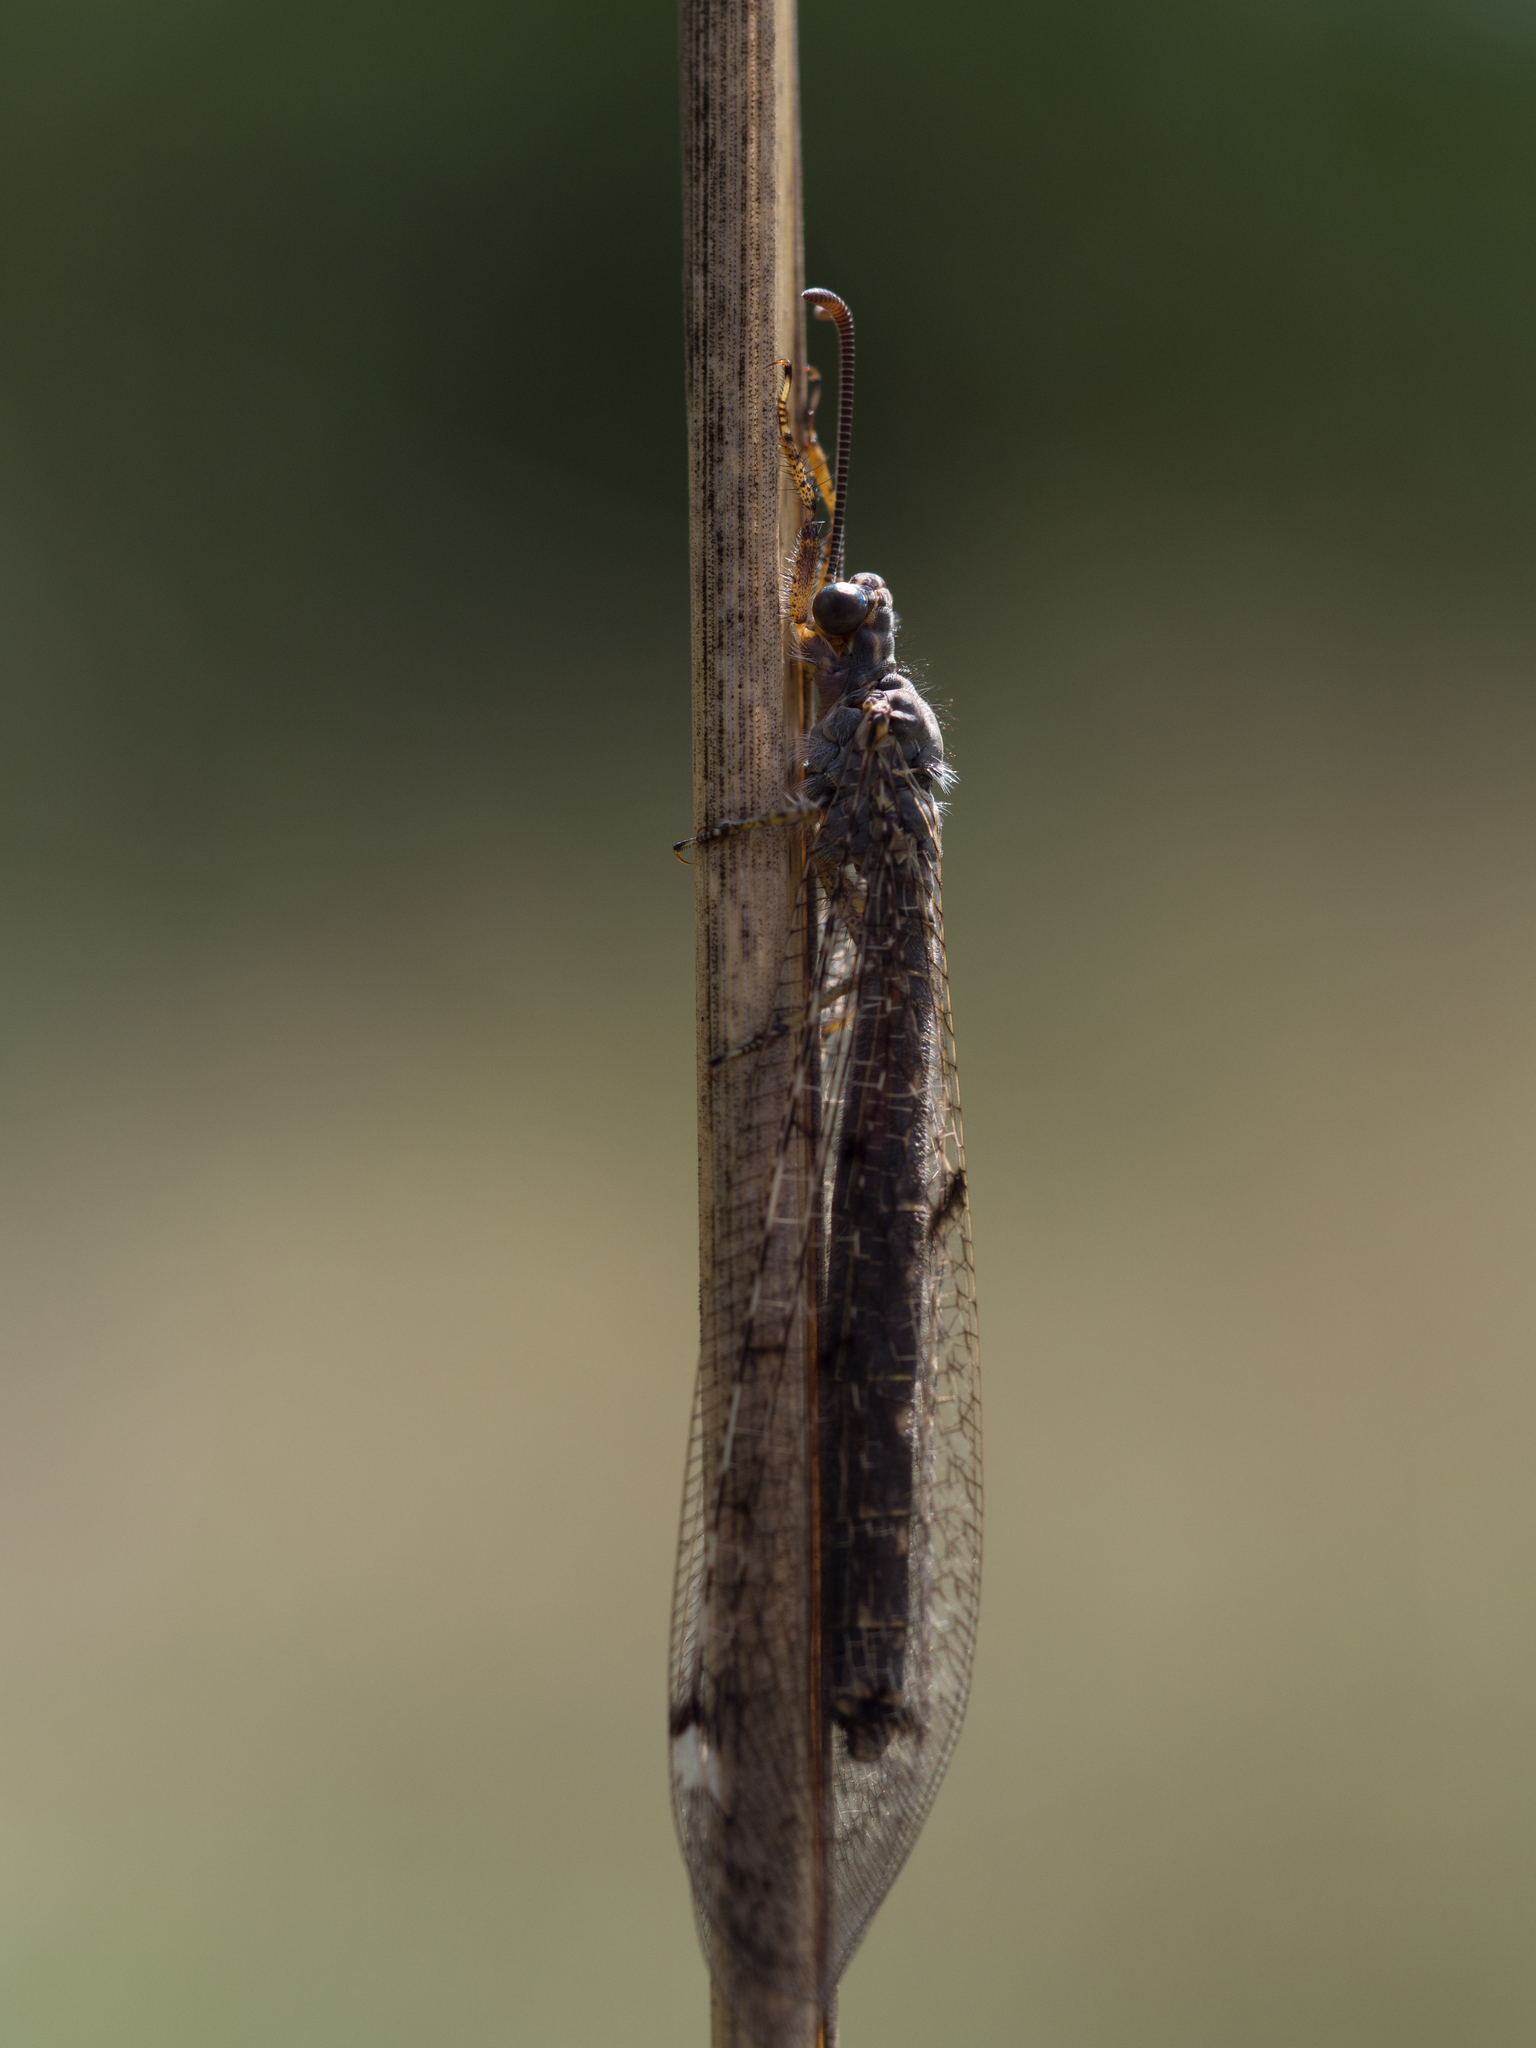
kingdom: Animalia
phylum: Arthropoda
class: Insecta
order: Neuroptera
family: Myrmeleontidae
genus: Distoleon
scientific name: Distoleon tetragrammicus
